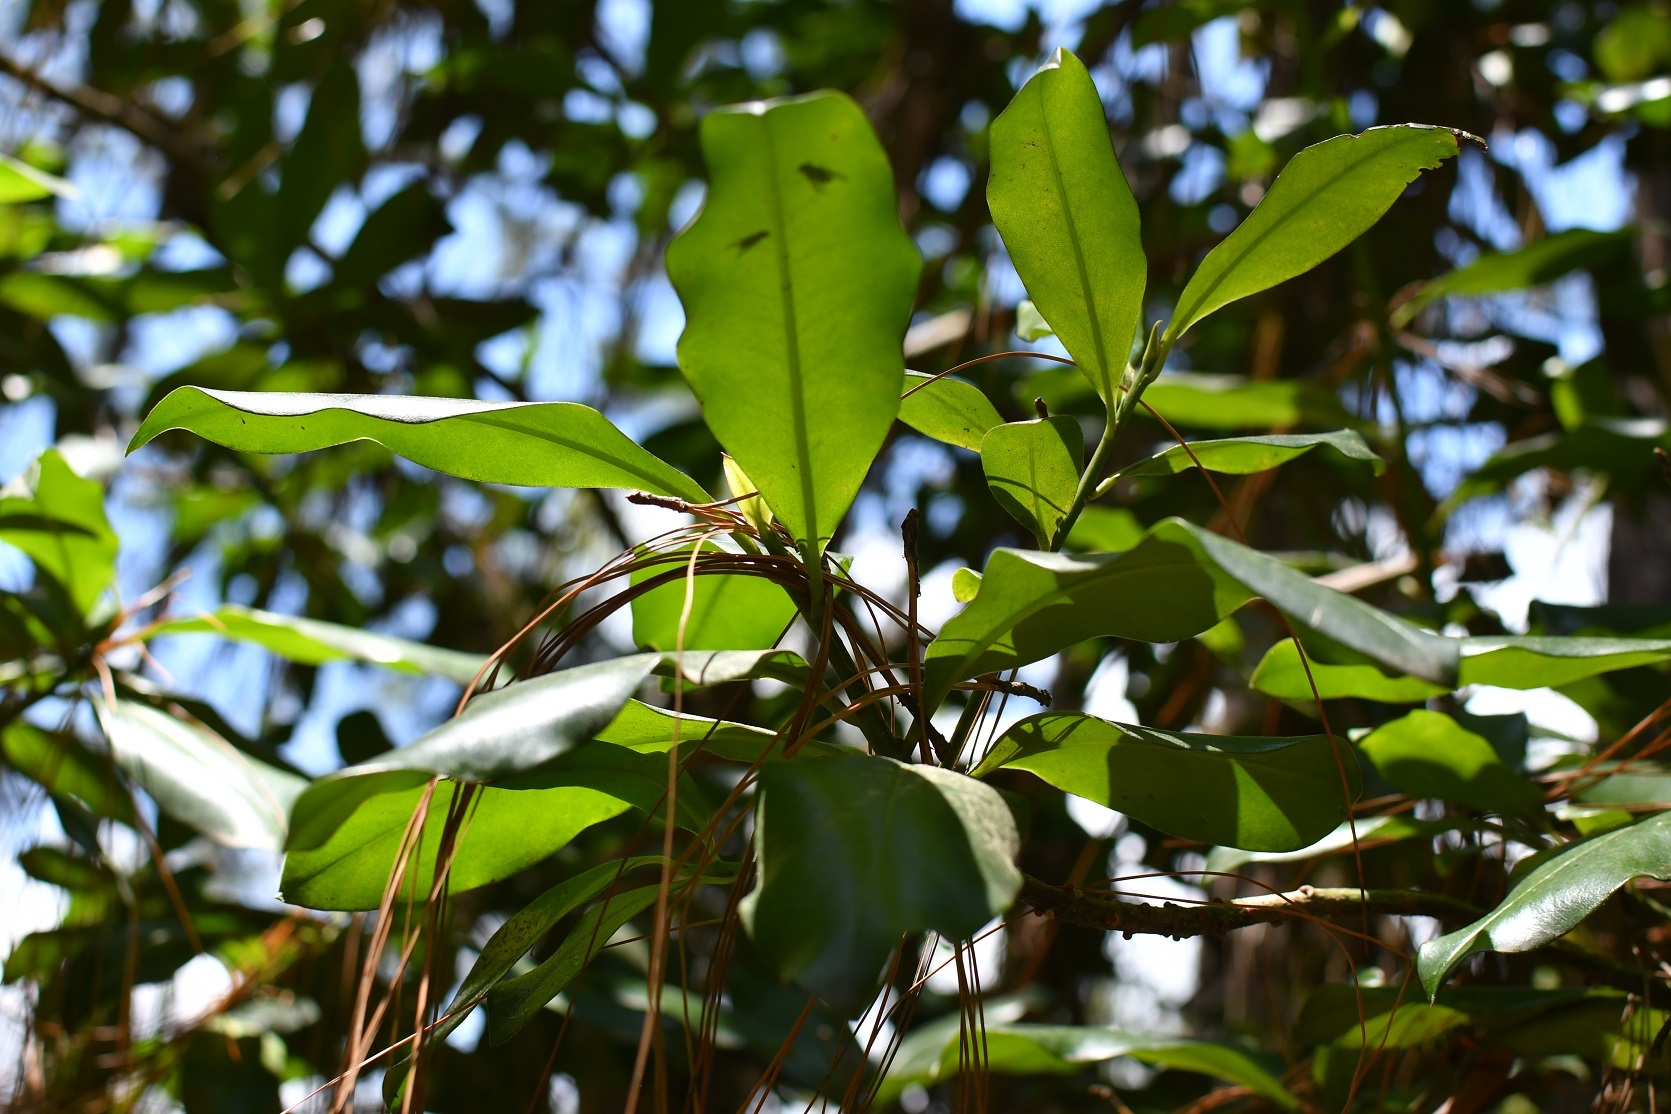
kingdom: Plantae
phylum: Tracheophyta
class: Magnoliopsida
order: Ericales
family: Primulaceae
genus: Myrsine
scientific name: Myrsine juergensenii
